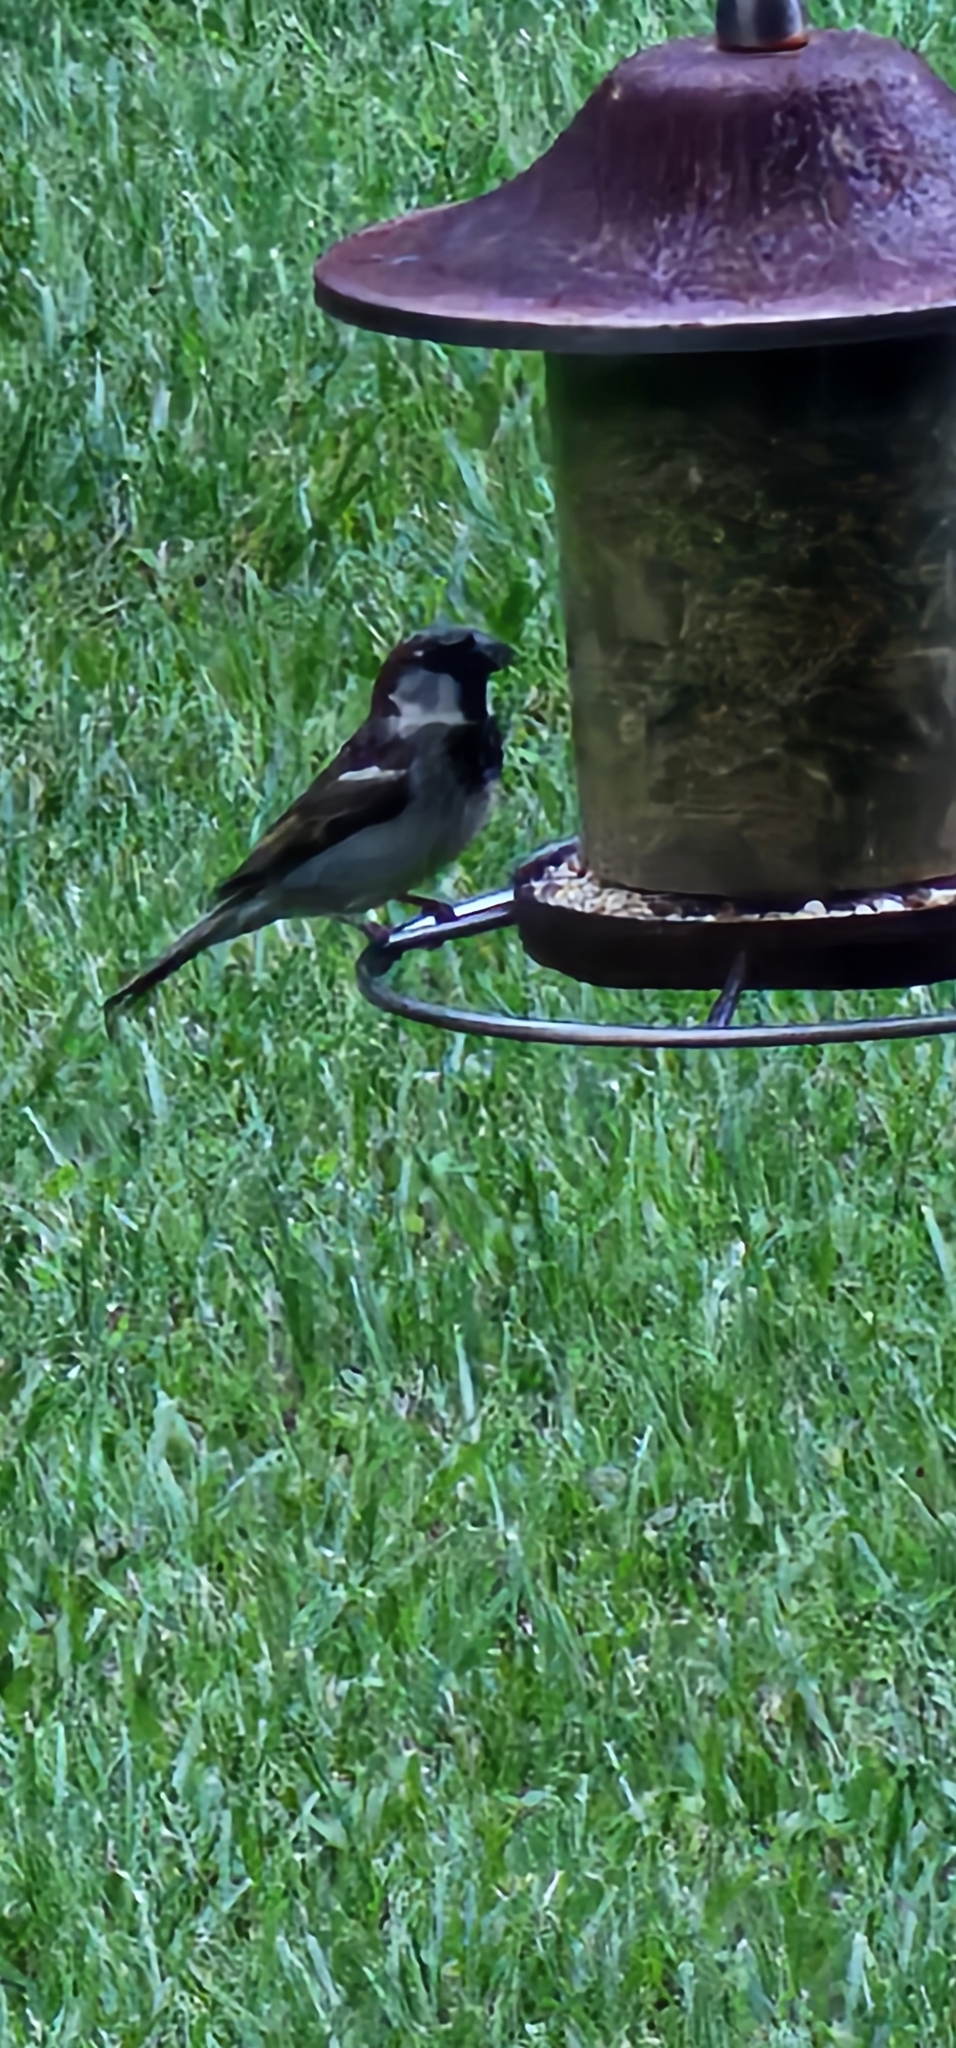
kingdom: Animalia
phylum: Chordata
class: Aves
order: Passeriformes
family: Passeridae
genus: Passer
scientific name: Passer domesticus
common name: House sparrow
